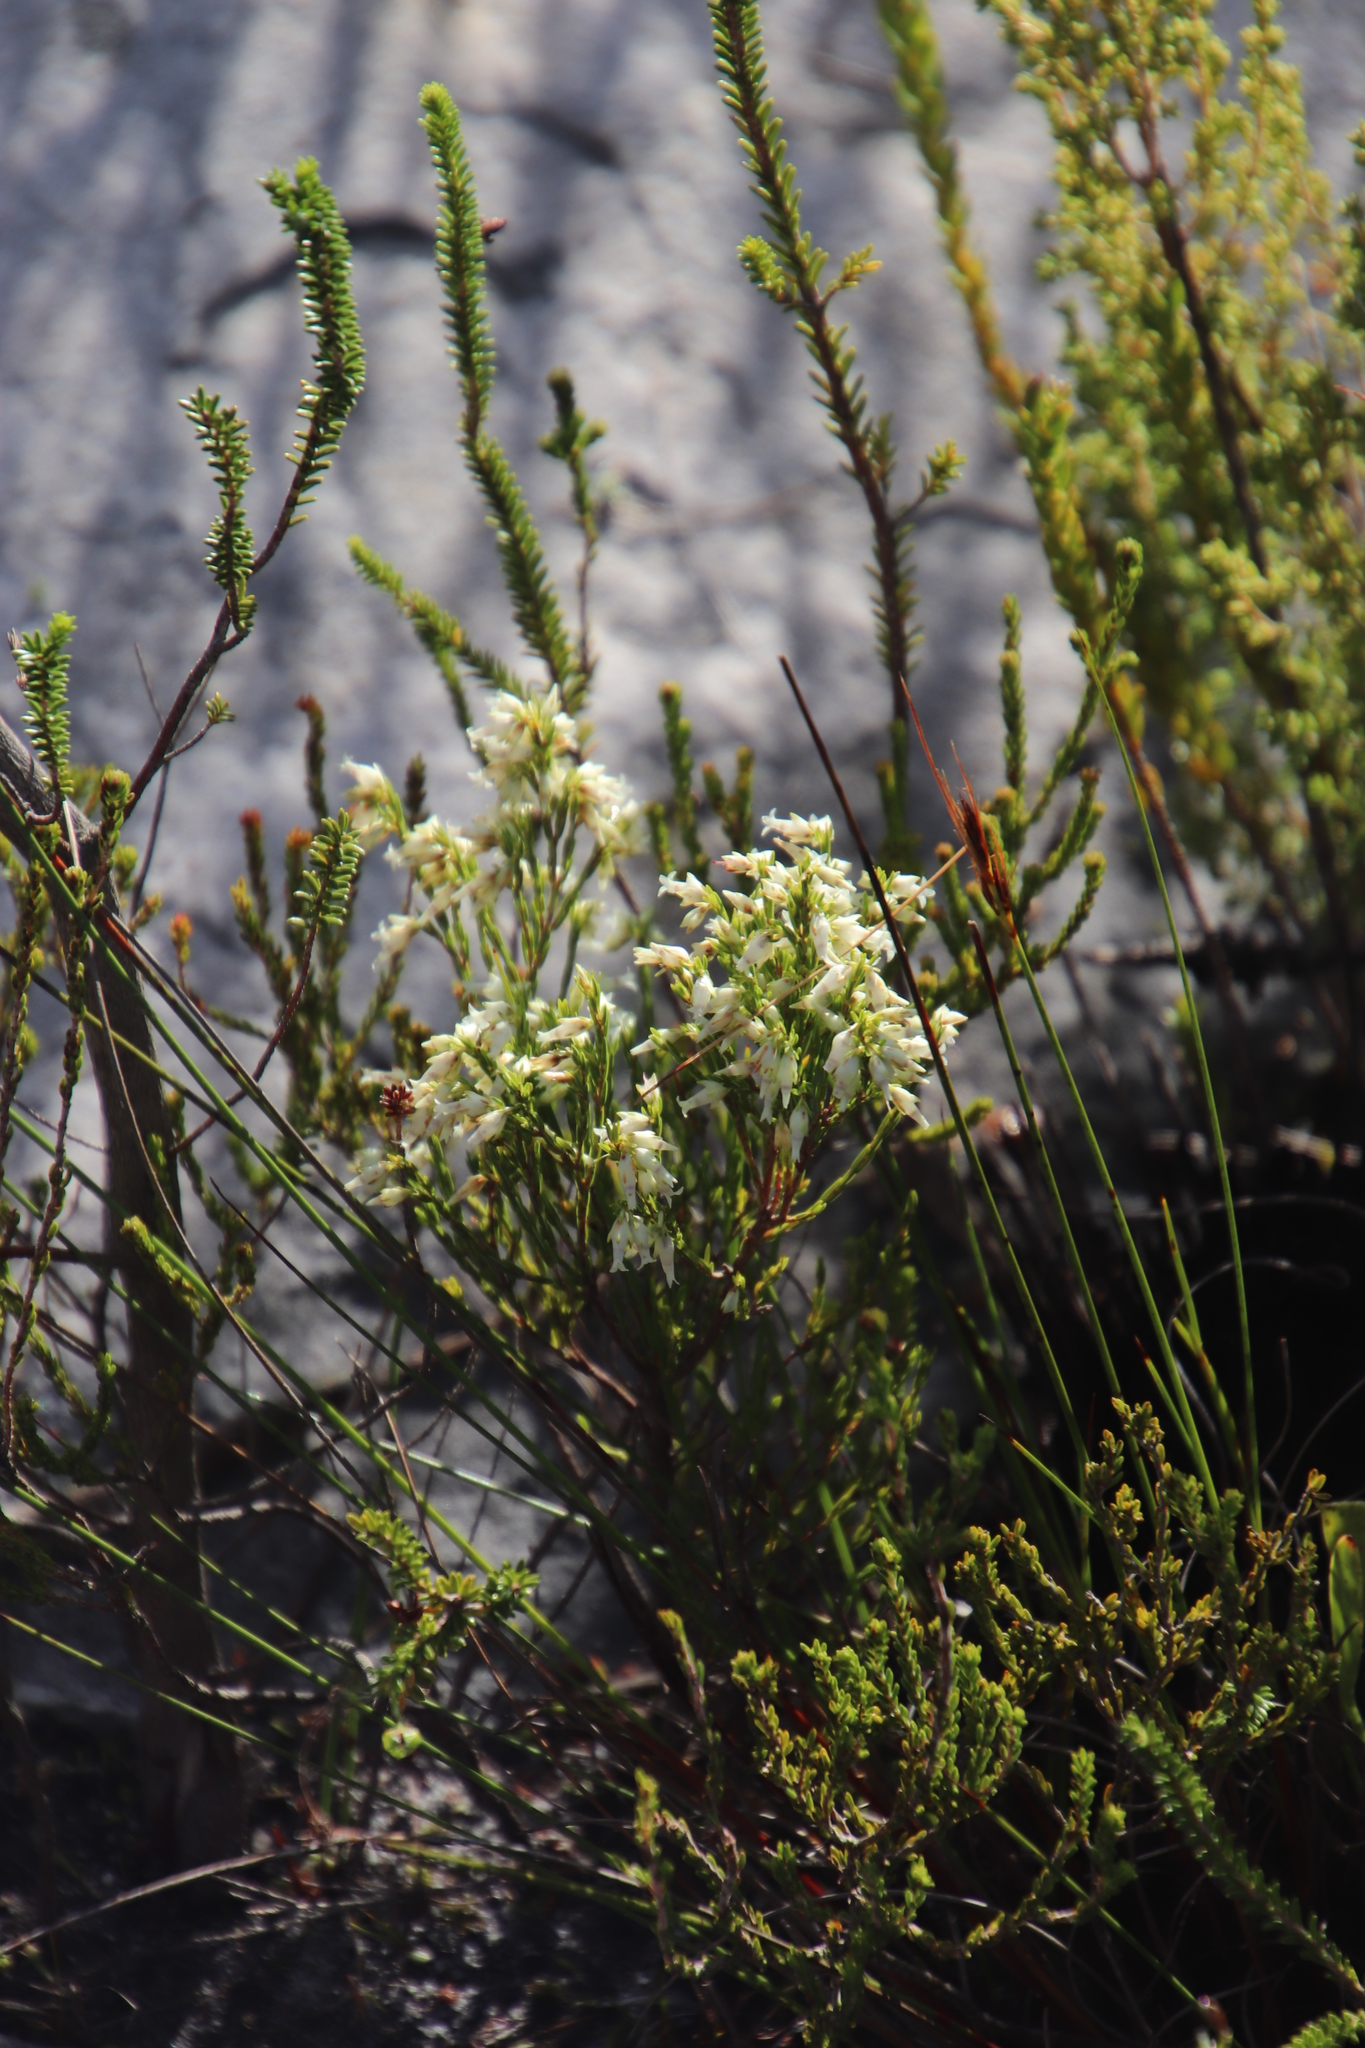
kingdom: Plantae
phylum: Tracheophyta
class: Magnoliopsida
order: Ericales
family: Ericaceae
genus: Erica
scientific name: Erica lutea
